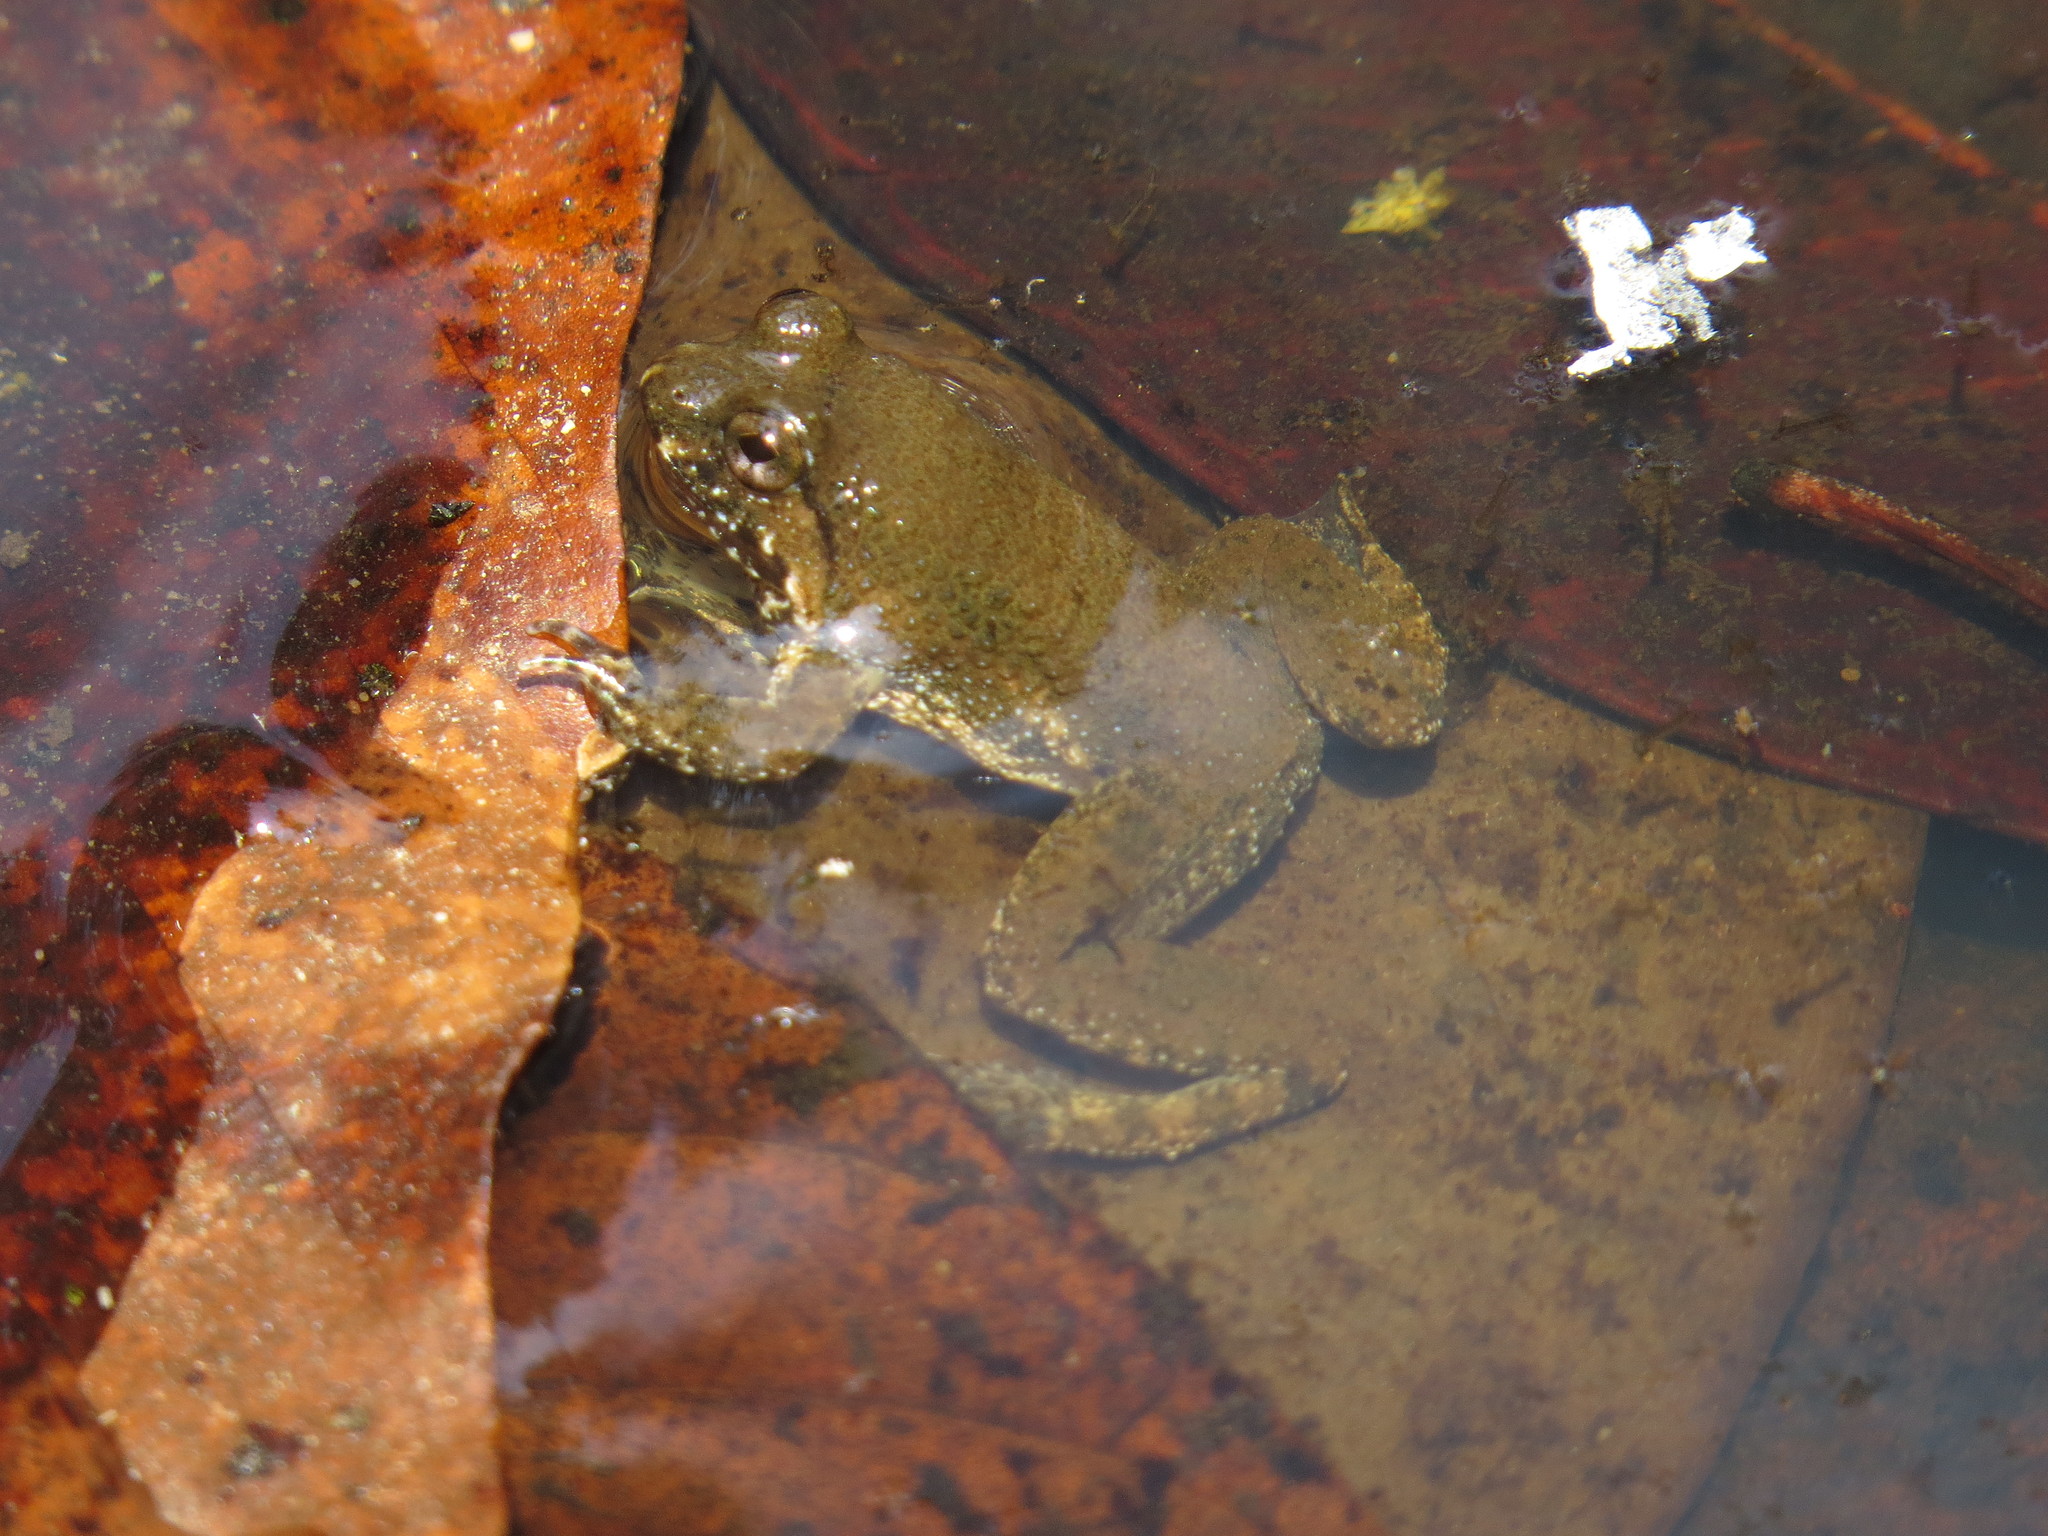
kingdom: Animalia
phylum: Chordata
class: Amphibia
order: Anura
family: Dicroglossidae
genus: Occidozyga
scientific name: Occidozyga lima
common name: Rough-skinned puddle frog/yellow-bellied puddle frog/green puddle frog/pointed-tongued floating frog
